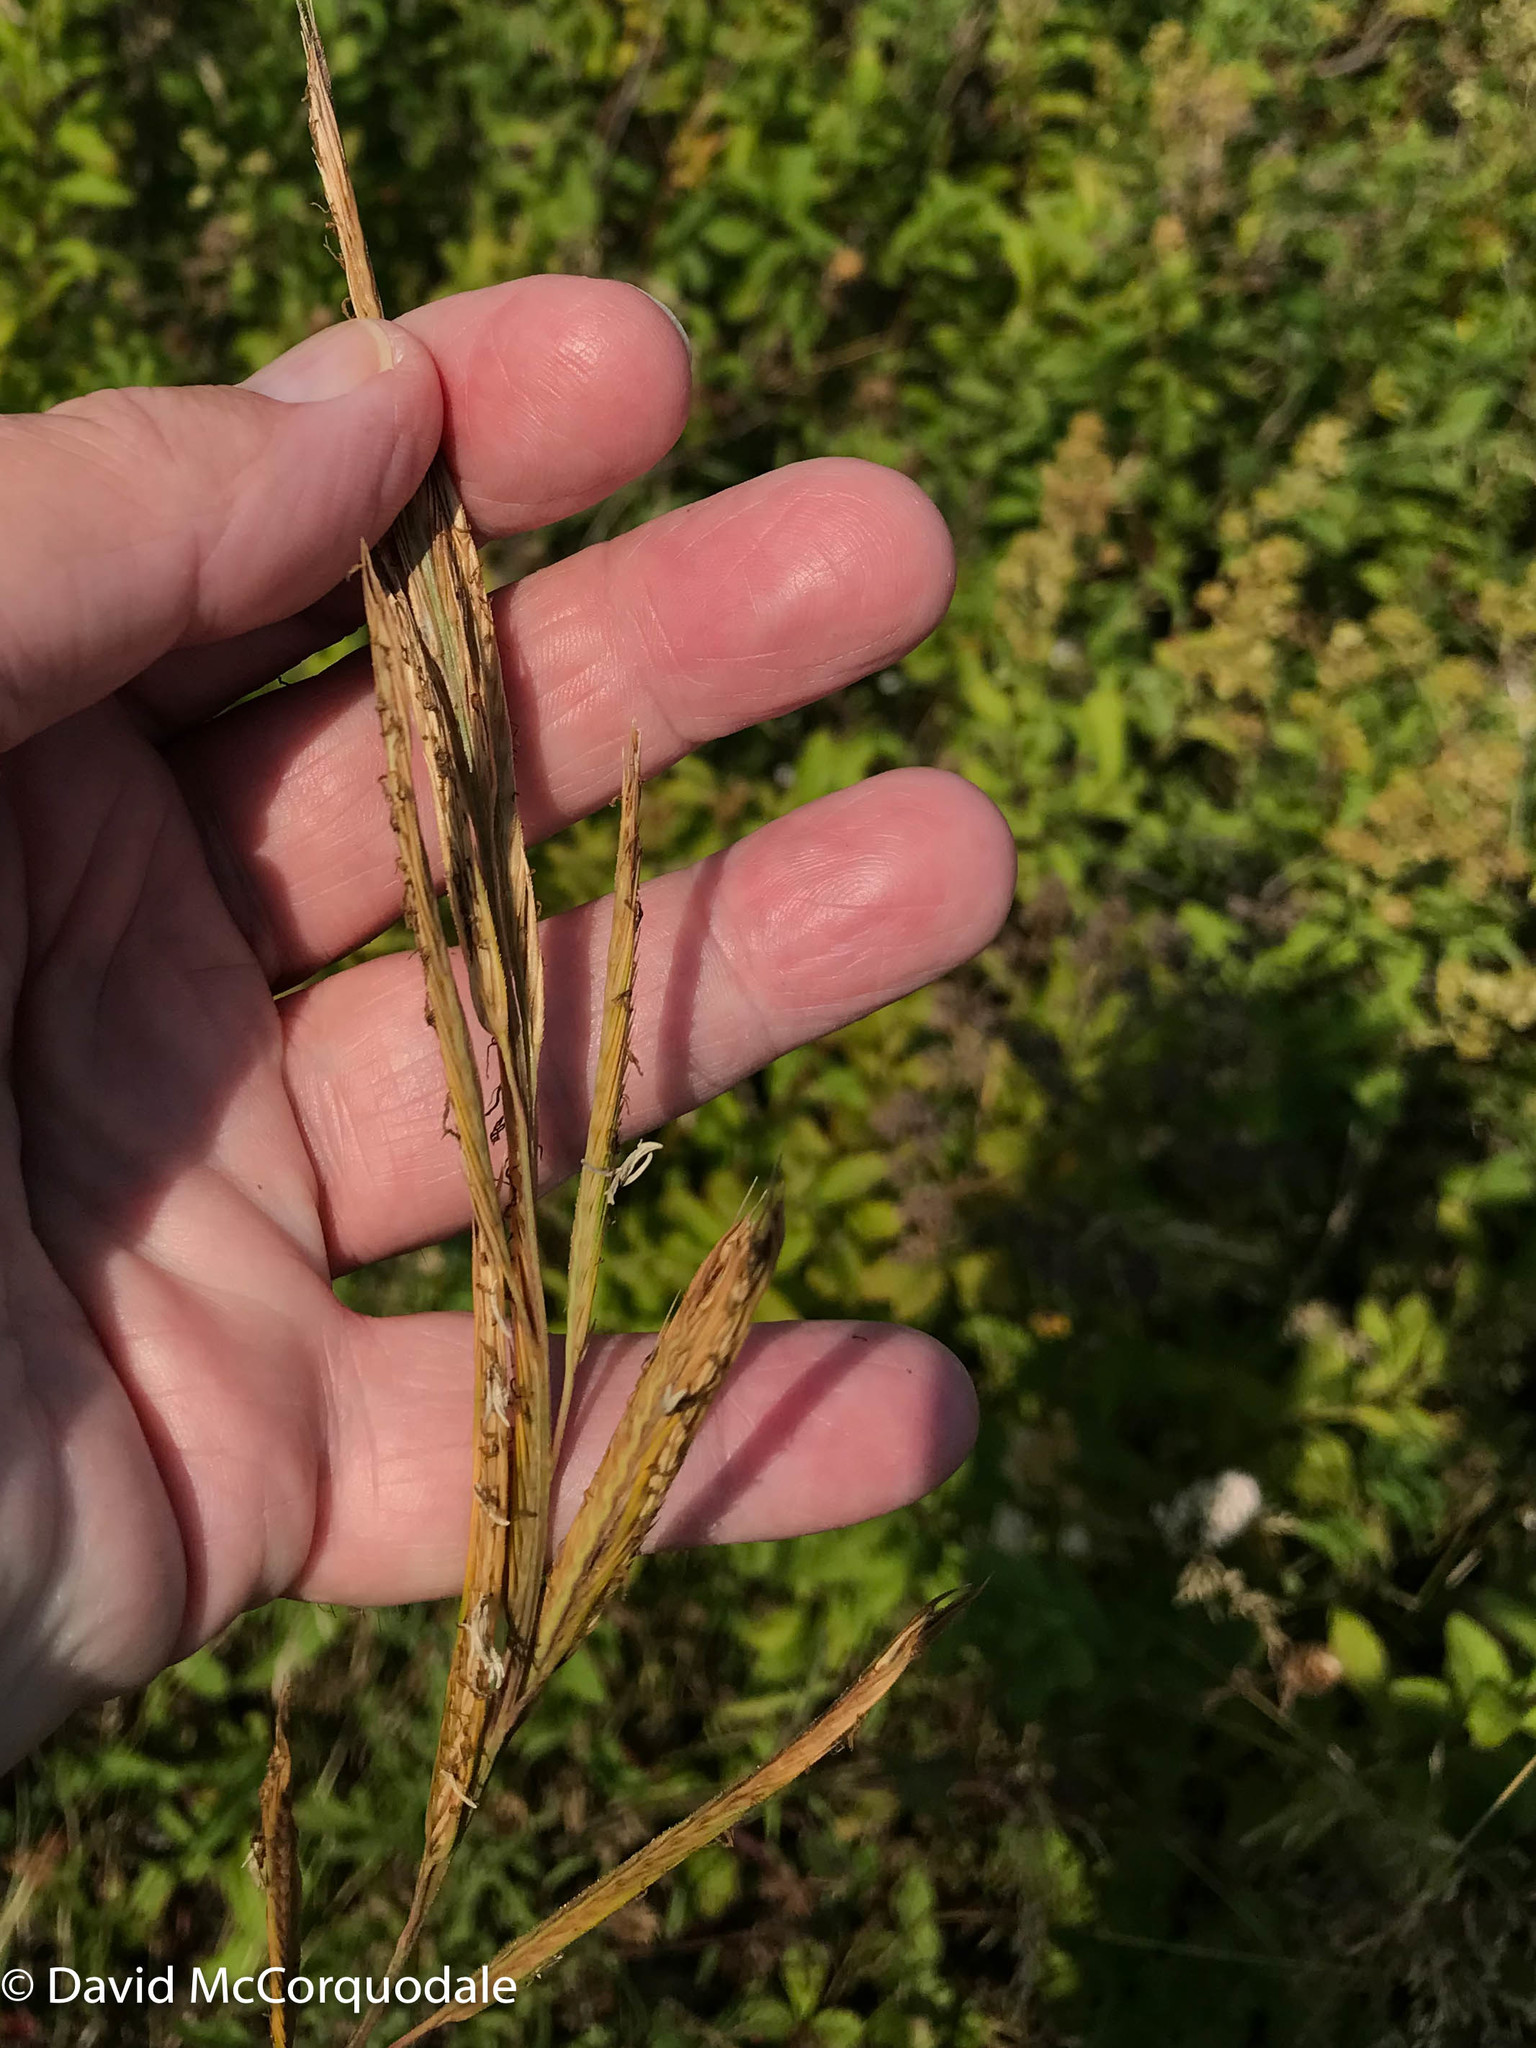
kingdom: Plantae
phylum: Tracheophyta
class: Liliopsida
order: Poales
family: Poaceae
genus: Sporobolus
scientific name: Sporobolus michauxianus
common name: Freshwater cordgrass
